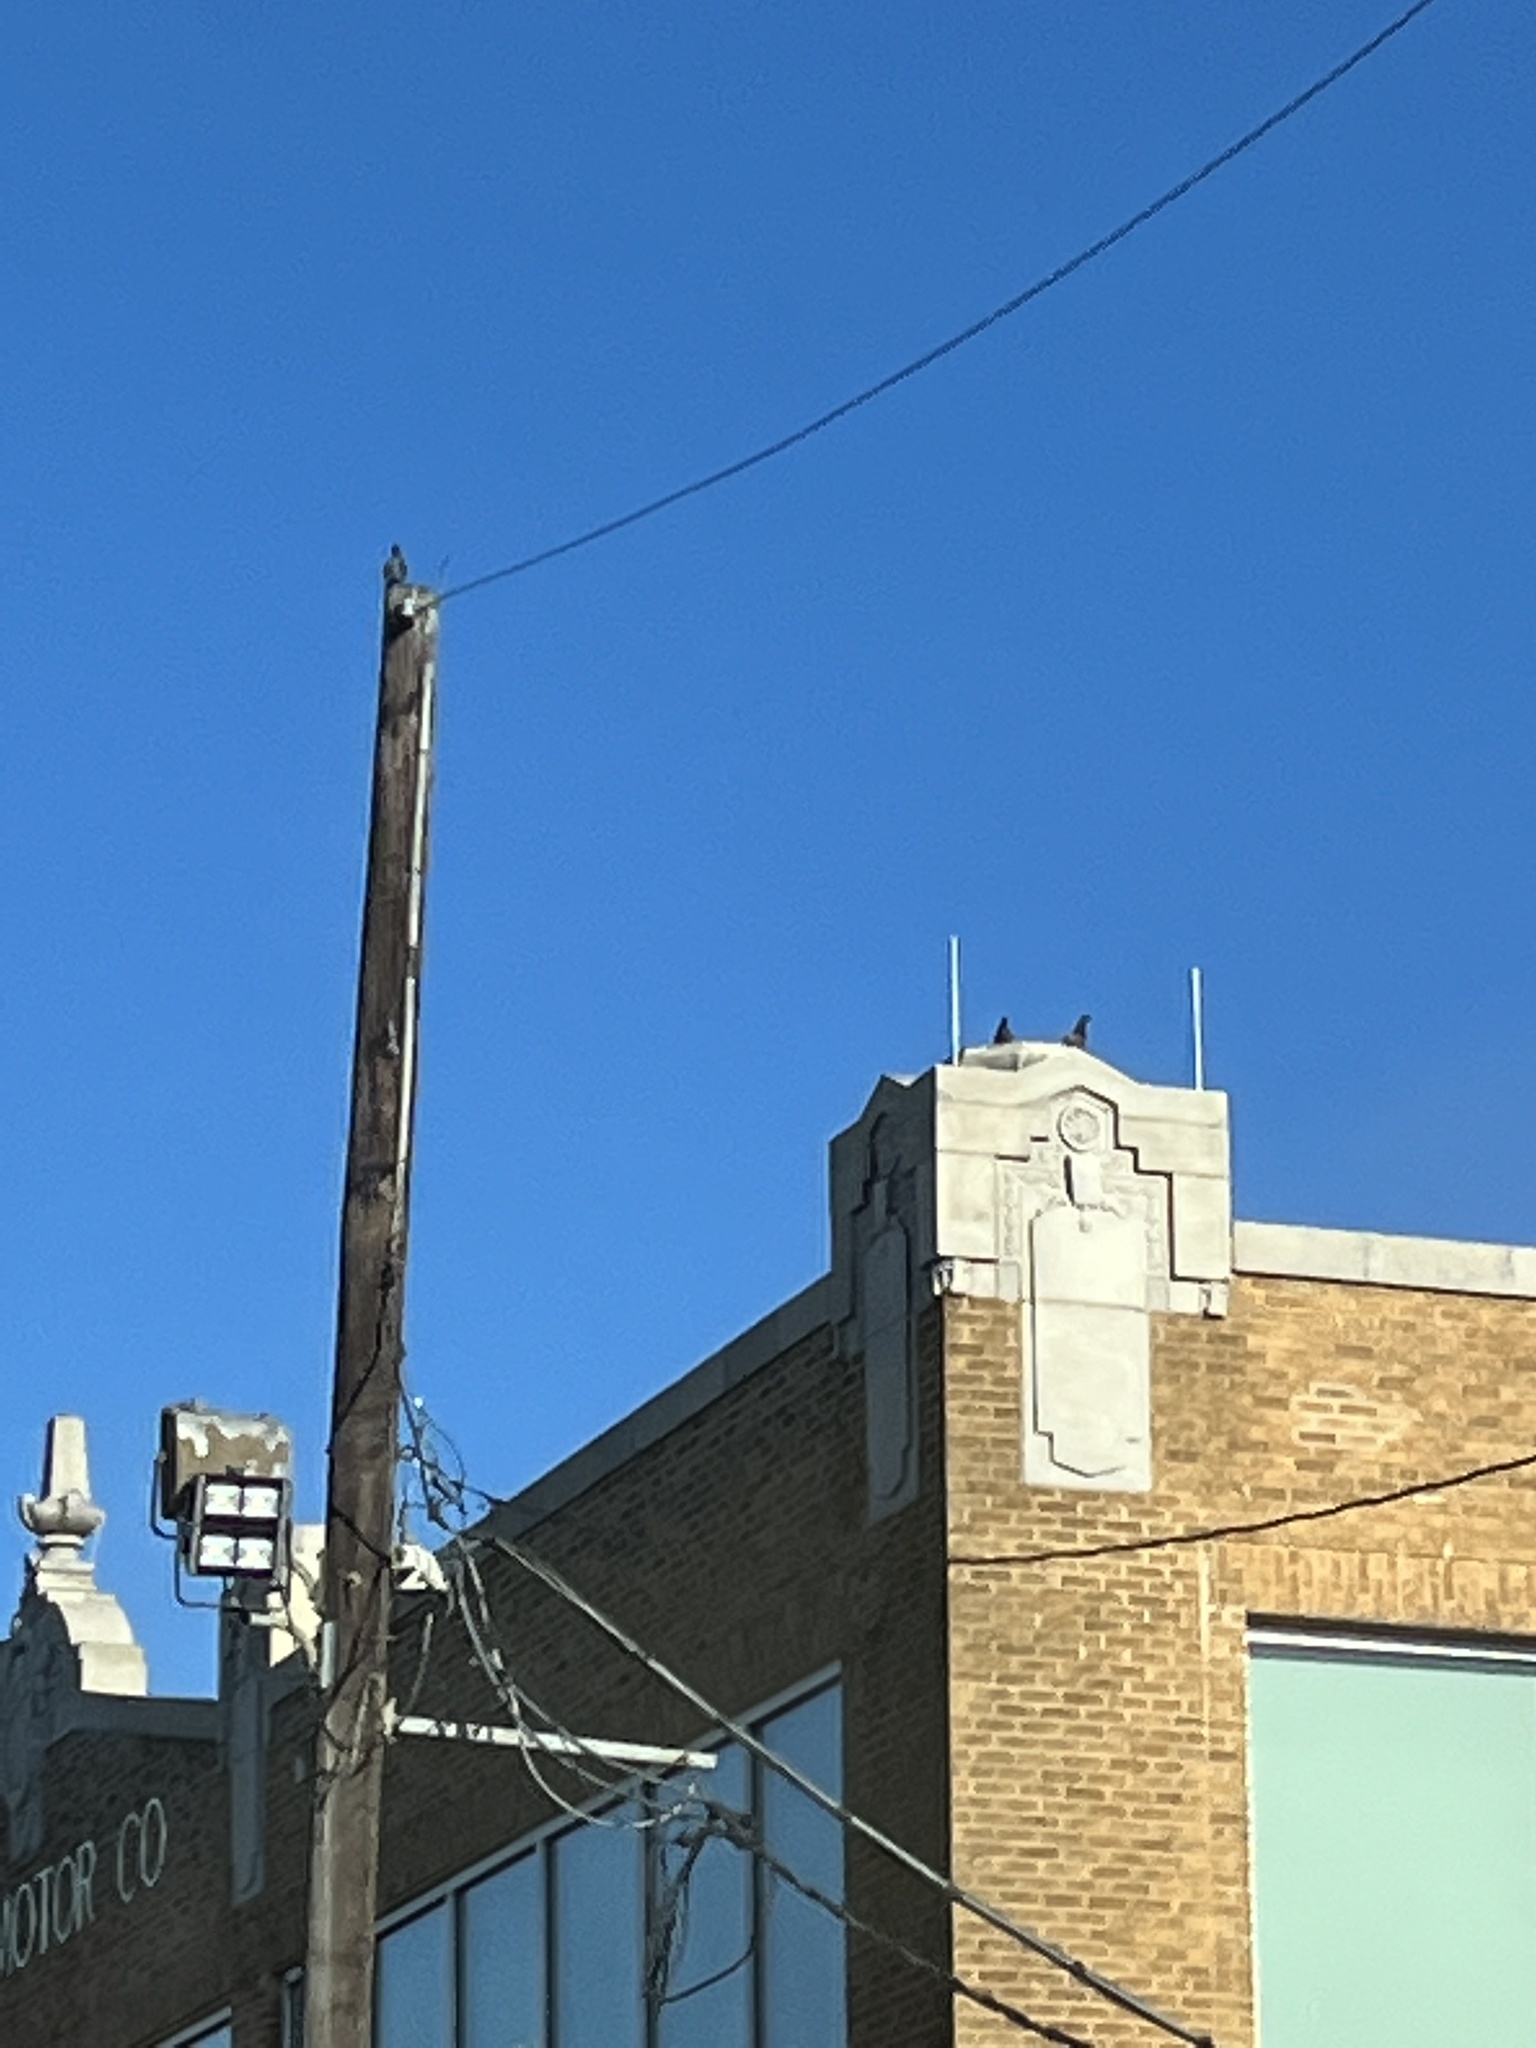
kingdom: Animalia
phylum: Chordata
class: Aves
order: Columbiformes
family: Columbidae
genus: Columba
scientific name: Columba livia
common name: Rock pigeon
